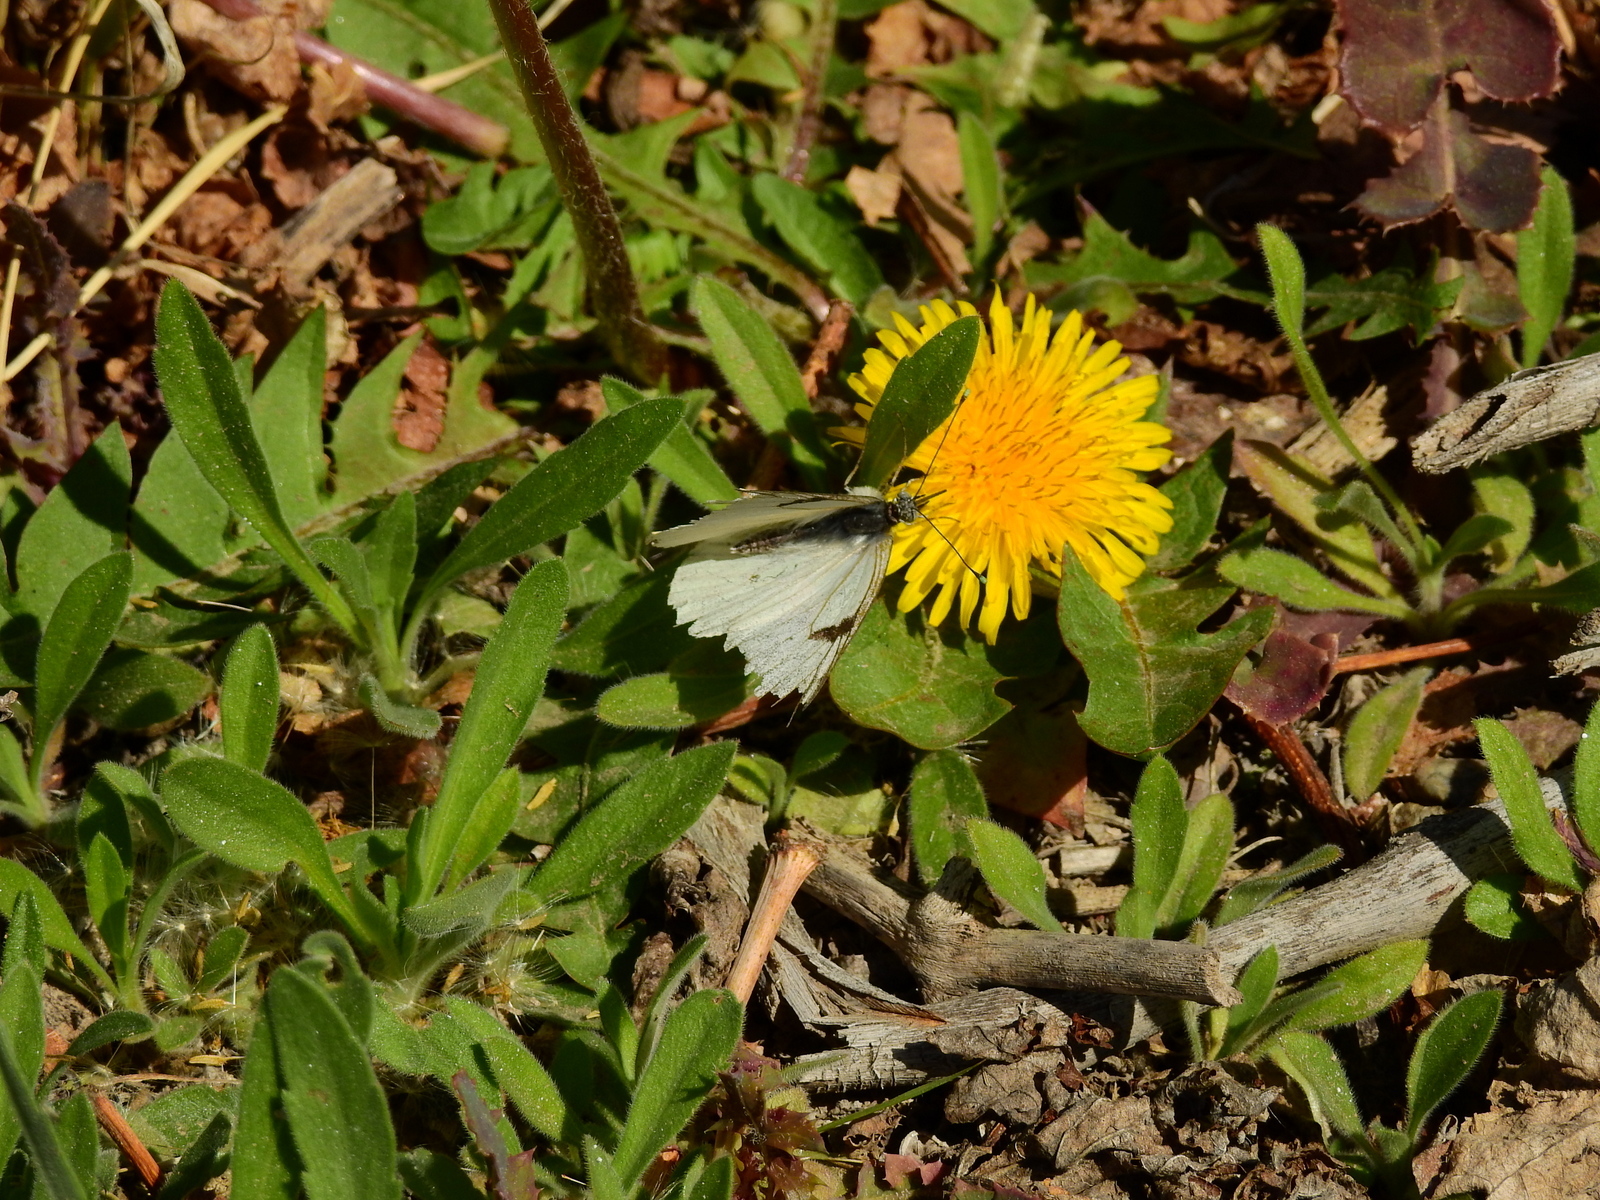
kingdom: Plantae
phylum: Tracheophyta
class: Magnoliopsida
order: Asterales
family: Asteraceae
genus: Taraxacum
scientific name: Taraxacum officinale
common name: Common dandelion
